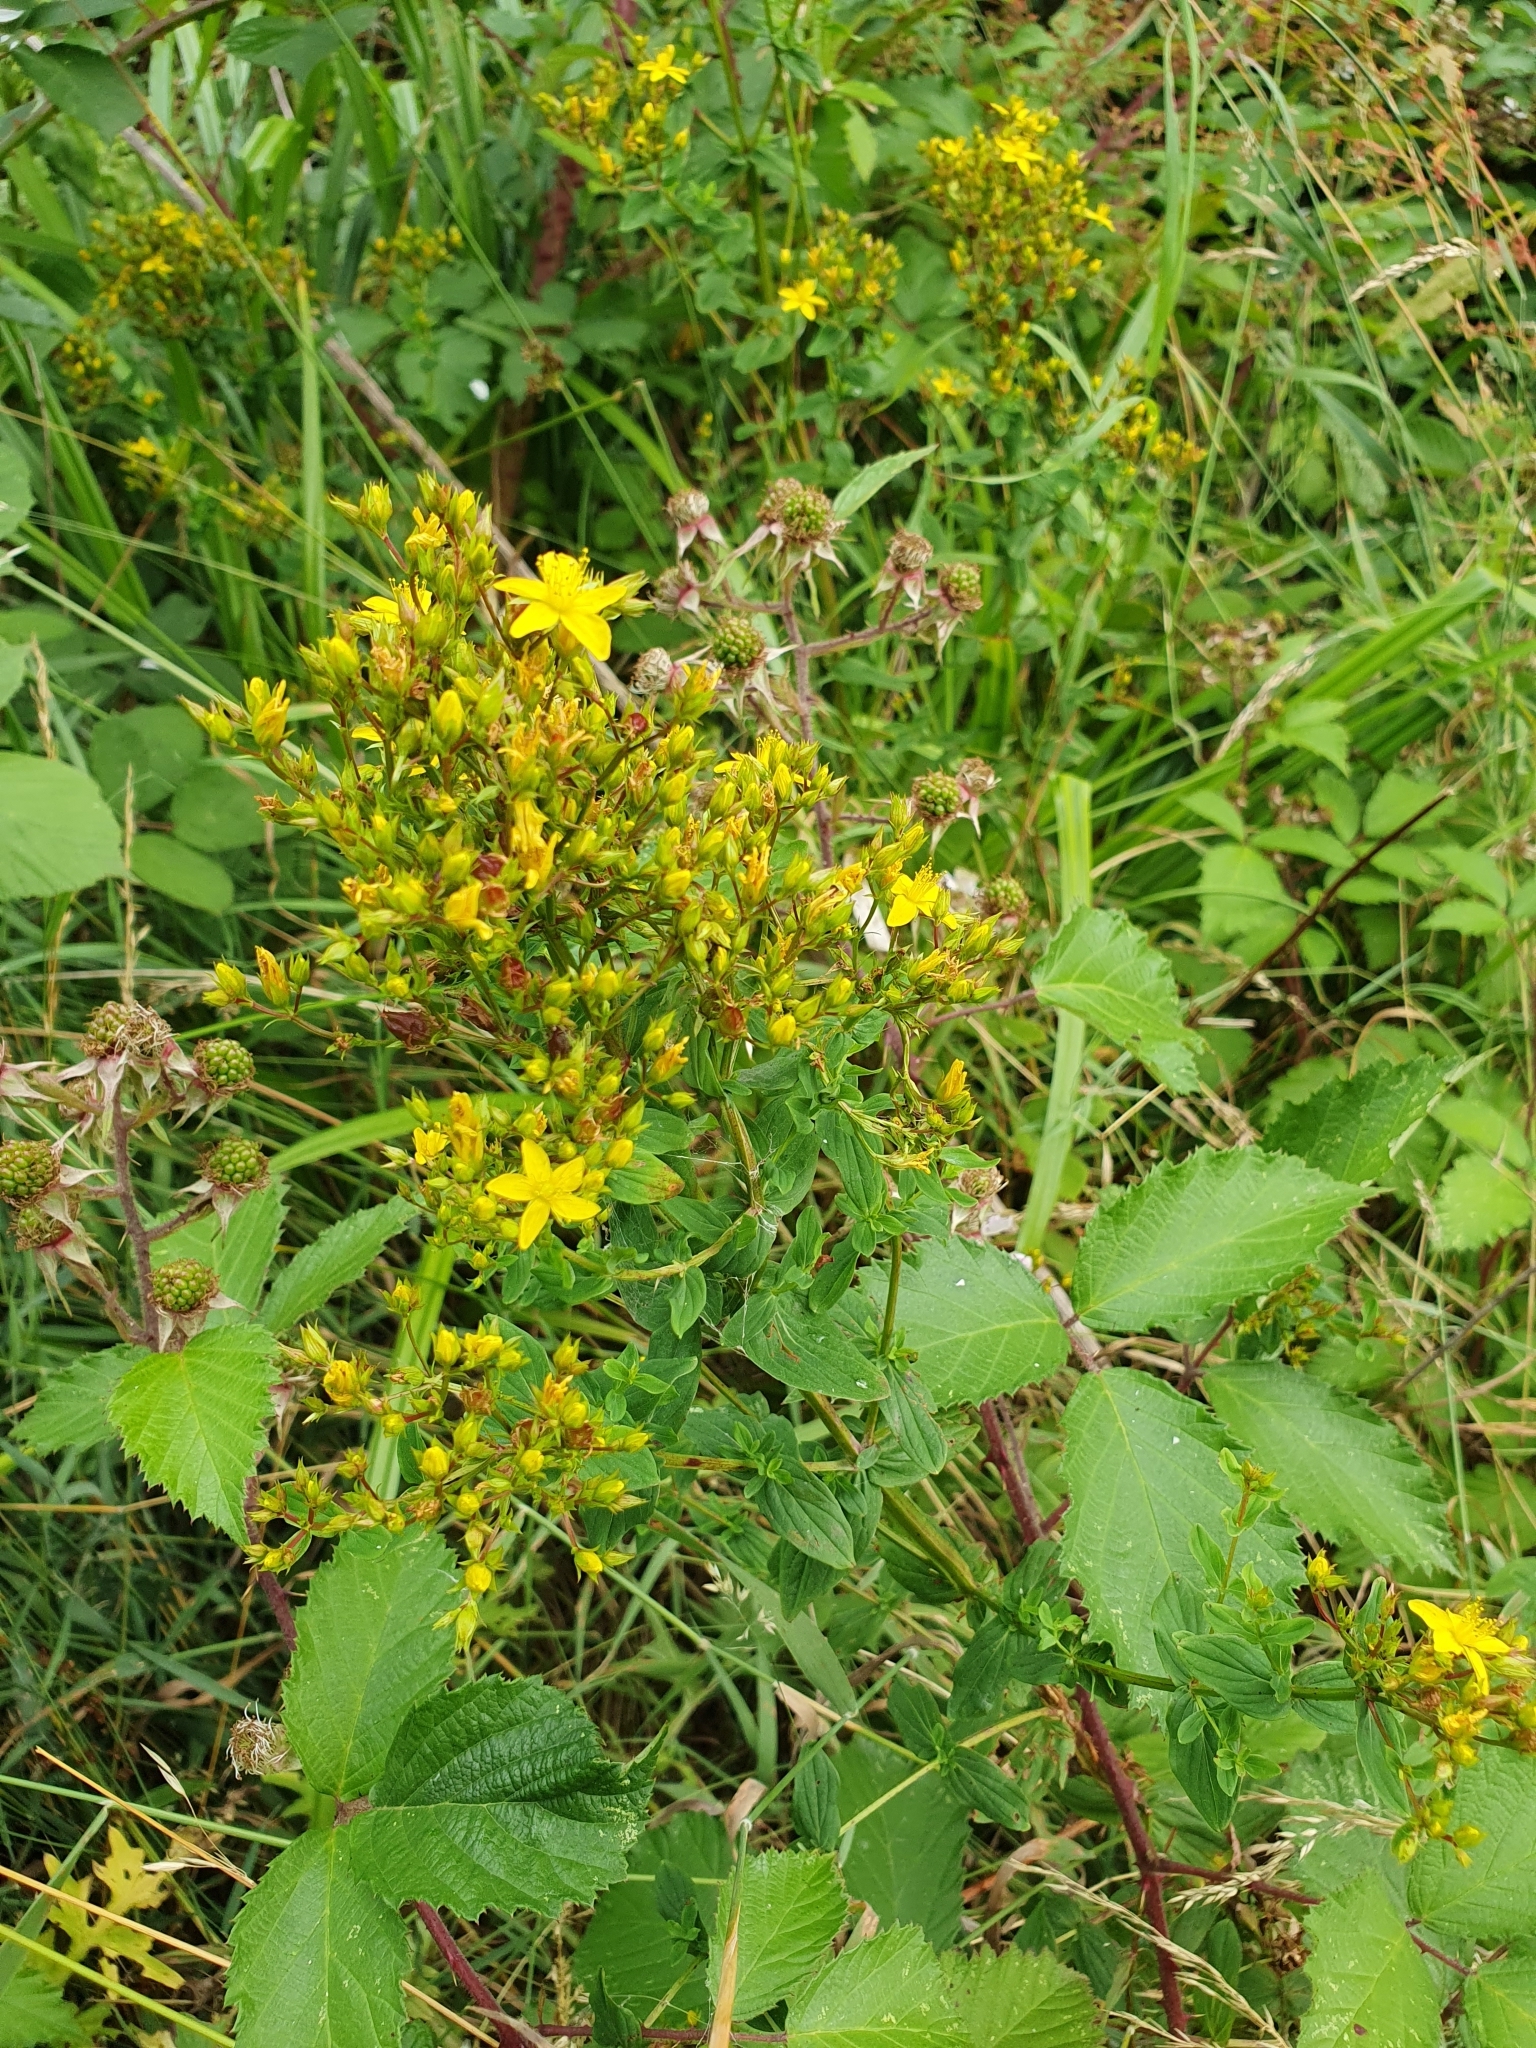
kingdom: Plantae
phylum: Tracheophyta
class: Magnoliopsida
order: Malpighiales
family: Hypericaceae
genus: Hypericum
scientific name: Hypericum tetrapterum
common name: Square-stalked st. john's-wort
